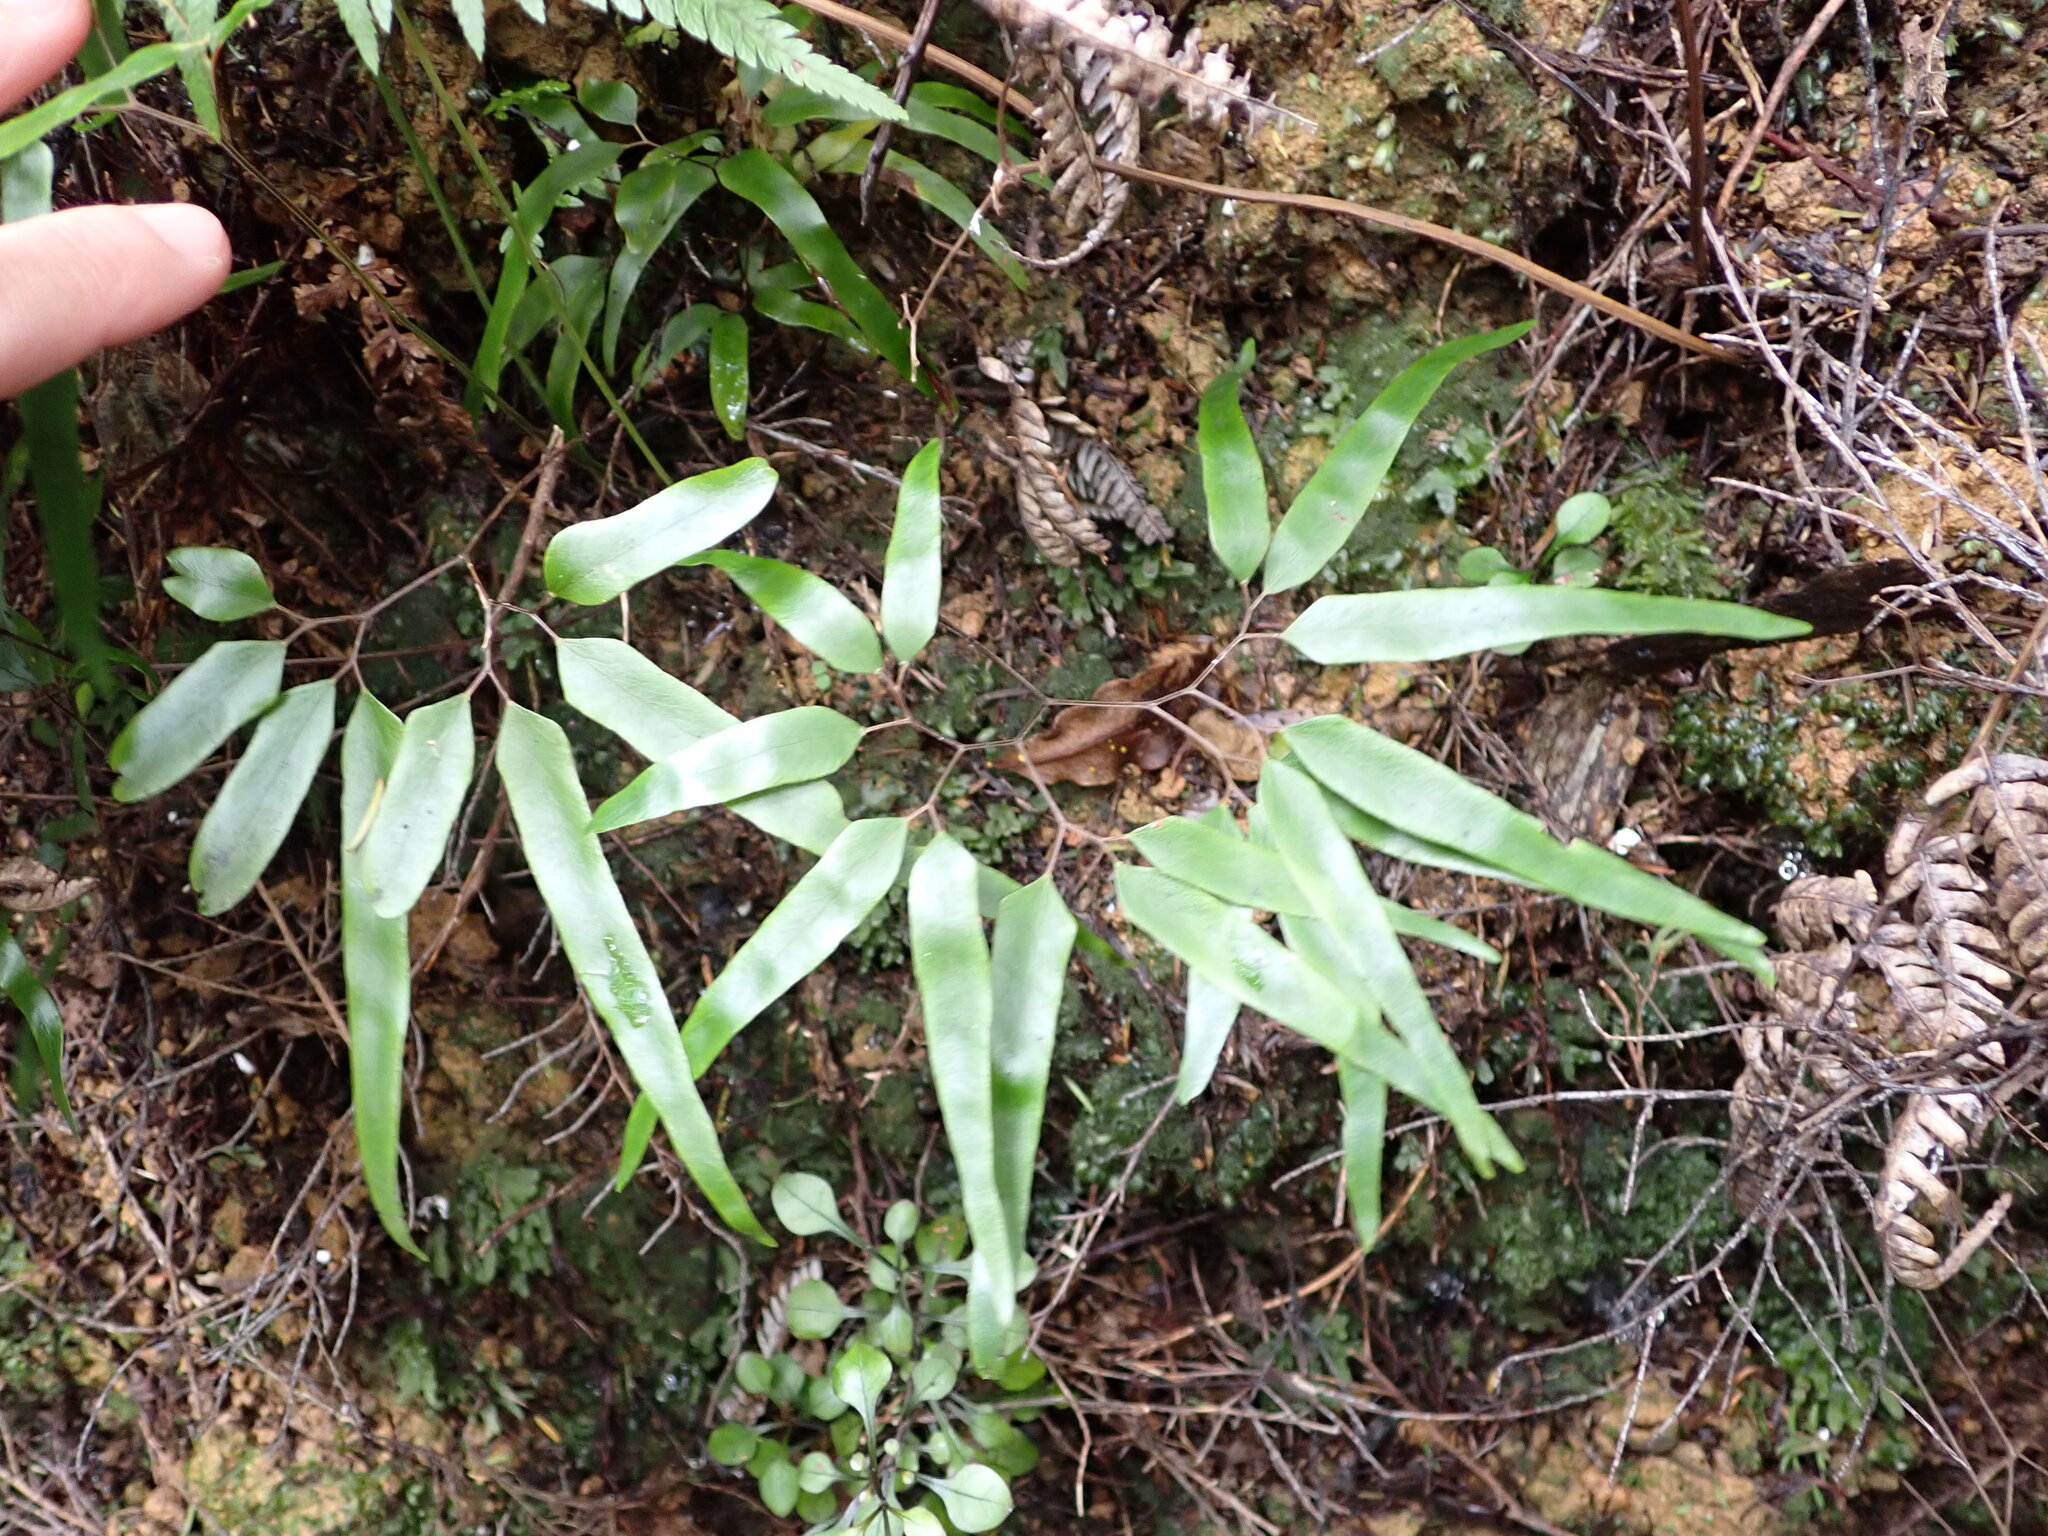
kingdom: Plantae
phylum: Tracheophyta
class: Polypodiopsida
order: Schizaeales
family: Lygodiaceae
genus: Lygodium
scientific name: Lygodium articulatum
